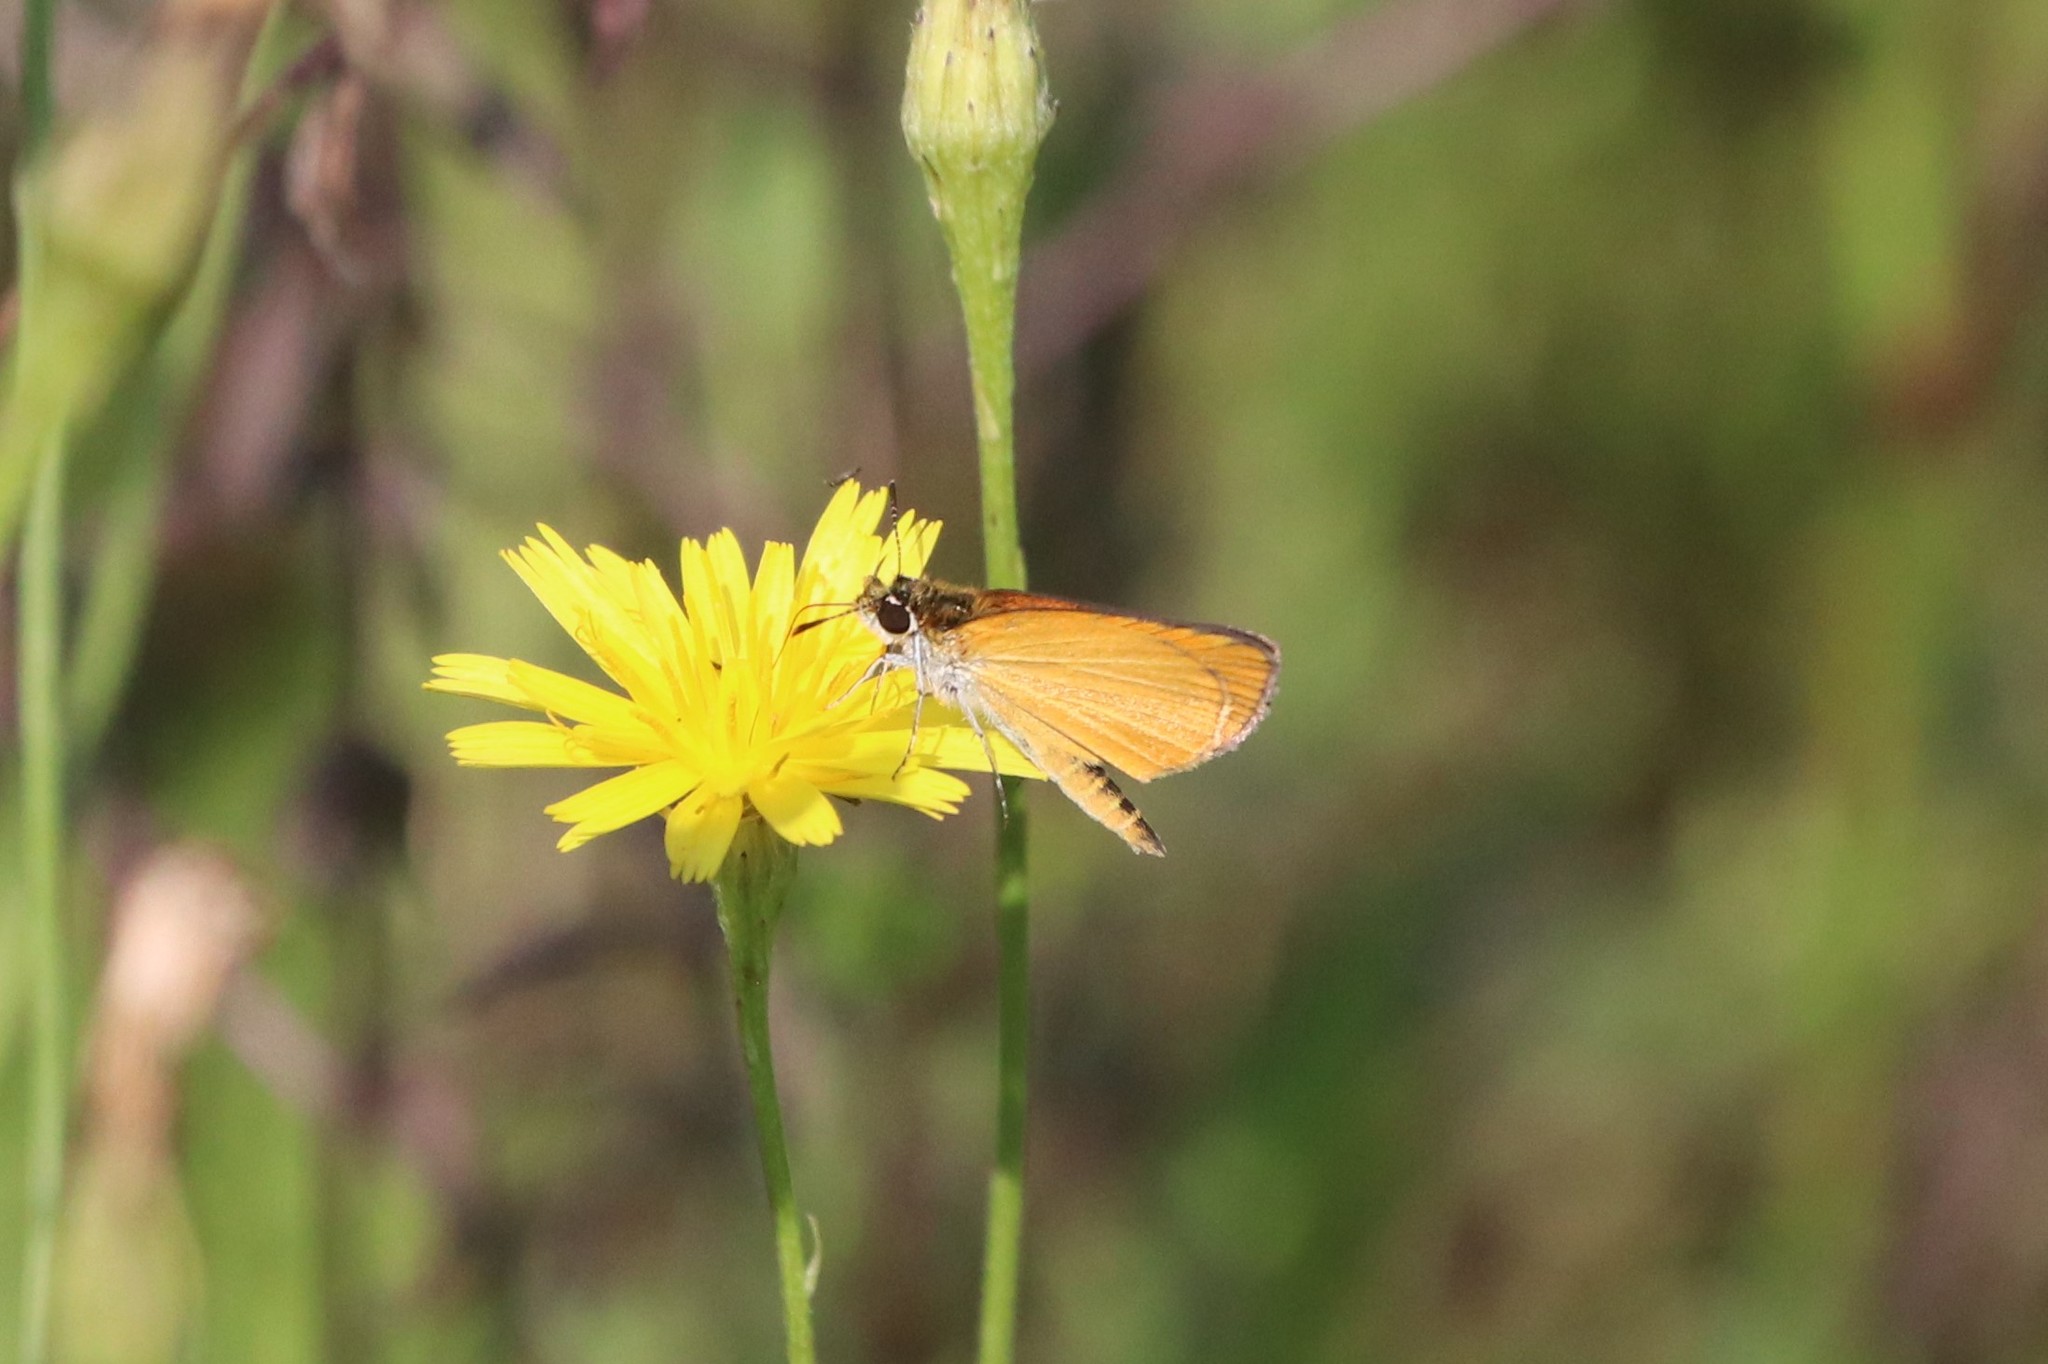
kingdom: Animalia
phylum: Arthropoda
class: Insecta
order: Lepidoptera
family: Hesperiidae
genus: Ancyloxypha
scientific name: Ancyloxypha numitor
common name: Least skipper
